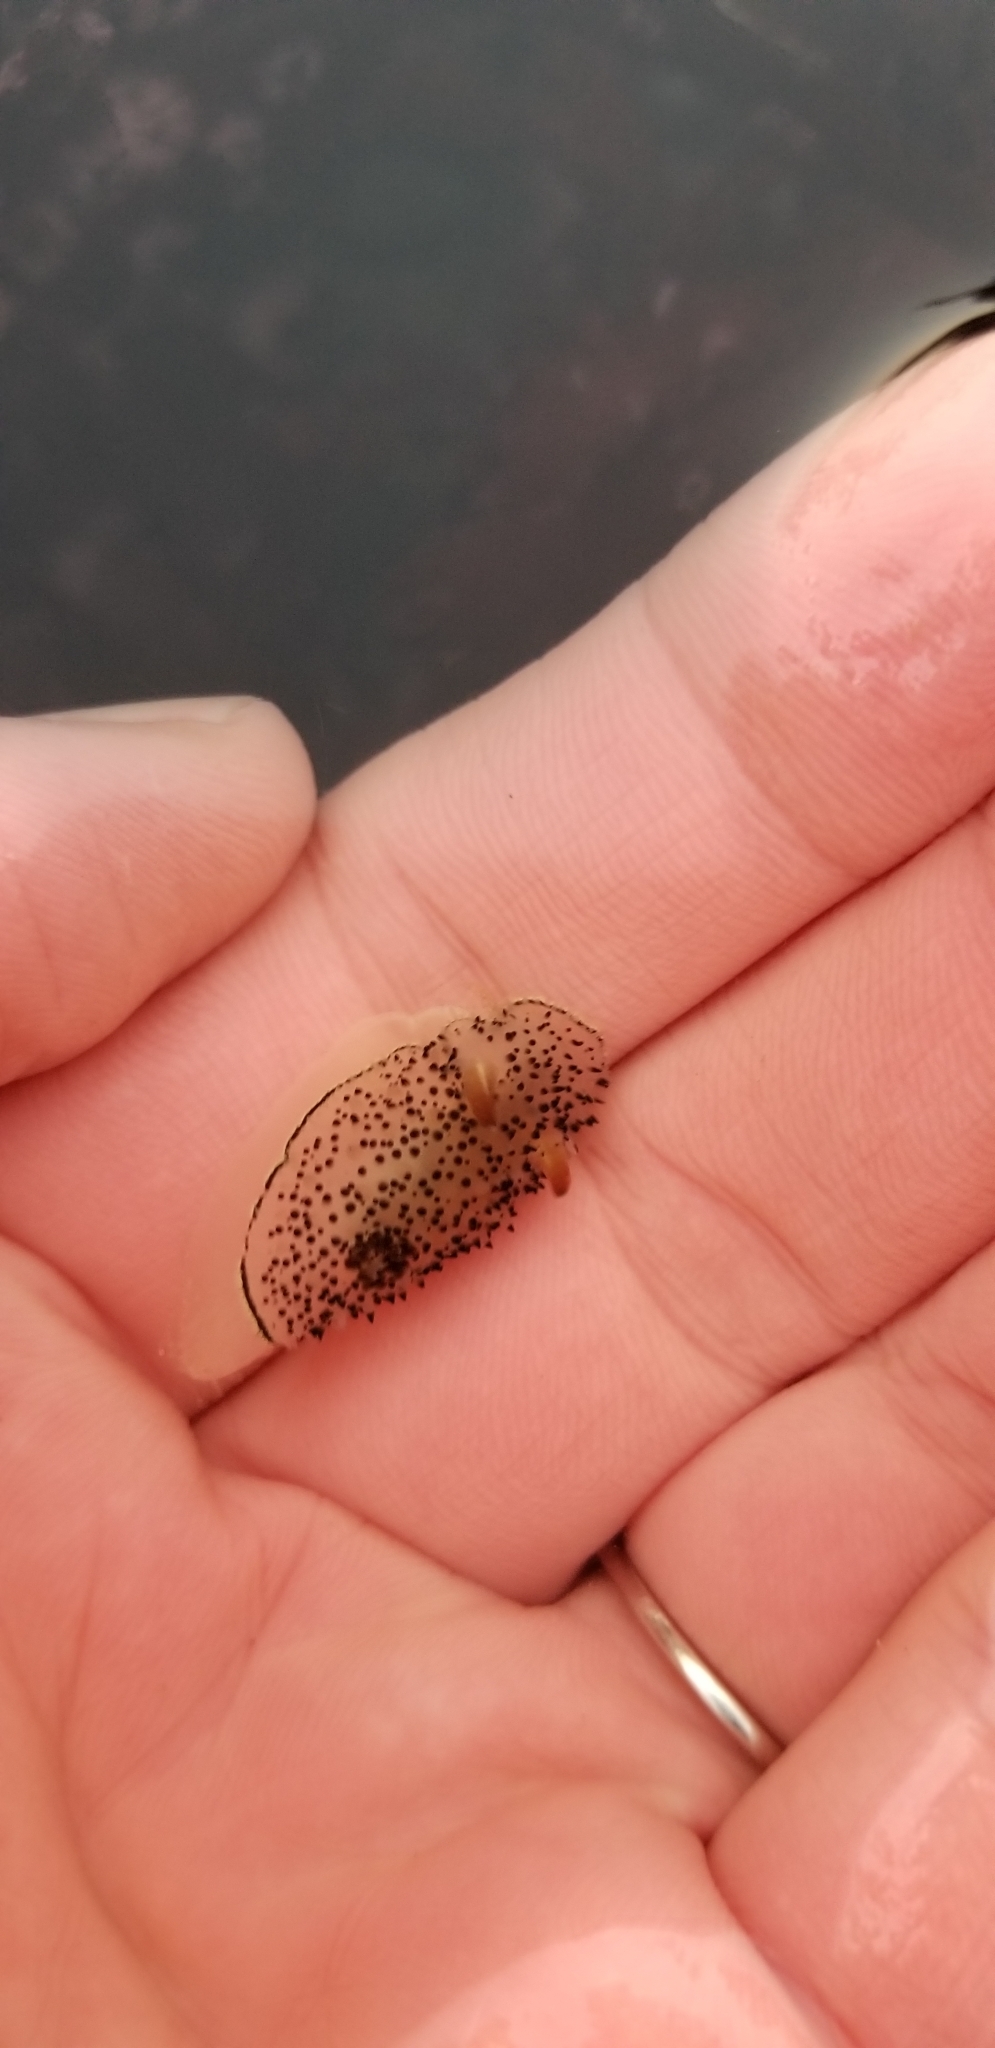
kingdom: Animalia
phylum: Mollusca
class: Gastropoda
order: Nudibranchia
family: Onchidorididae
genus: Acanthodoris
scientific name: Acanthodoris rhodoceras
